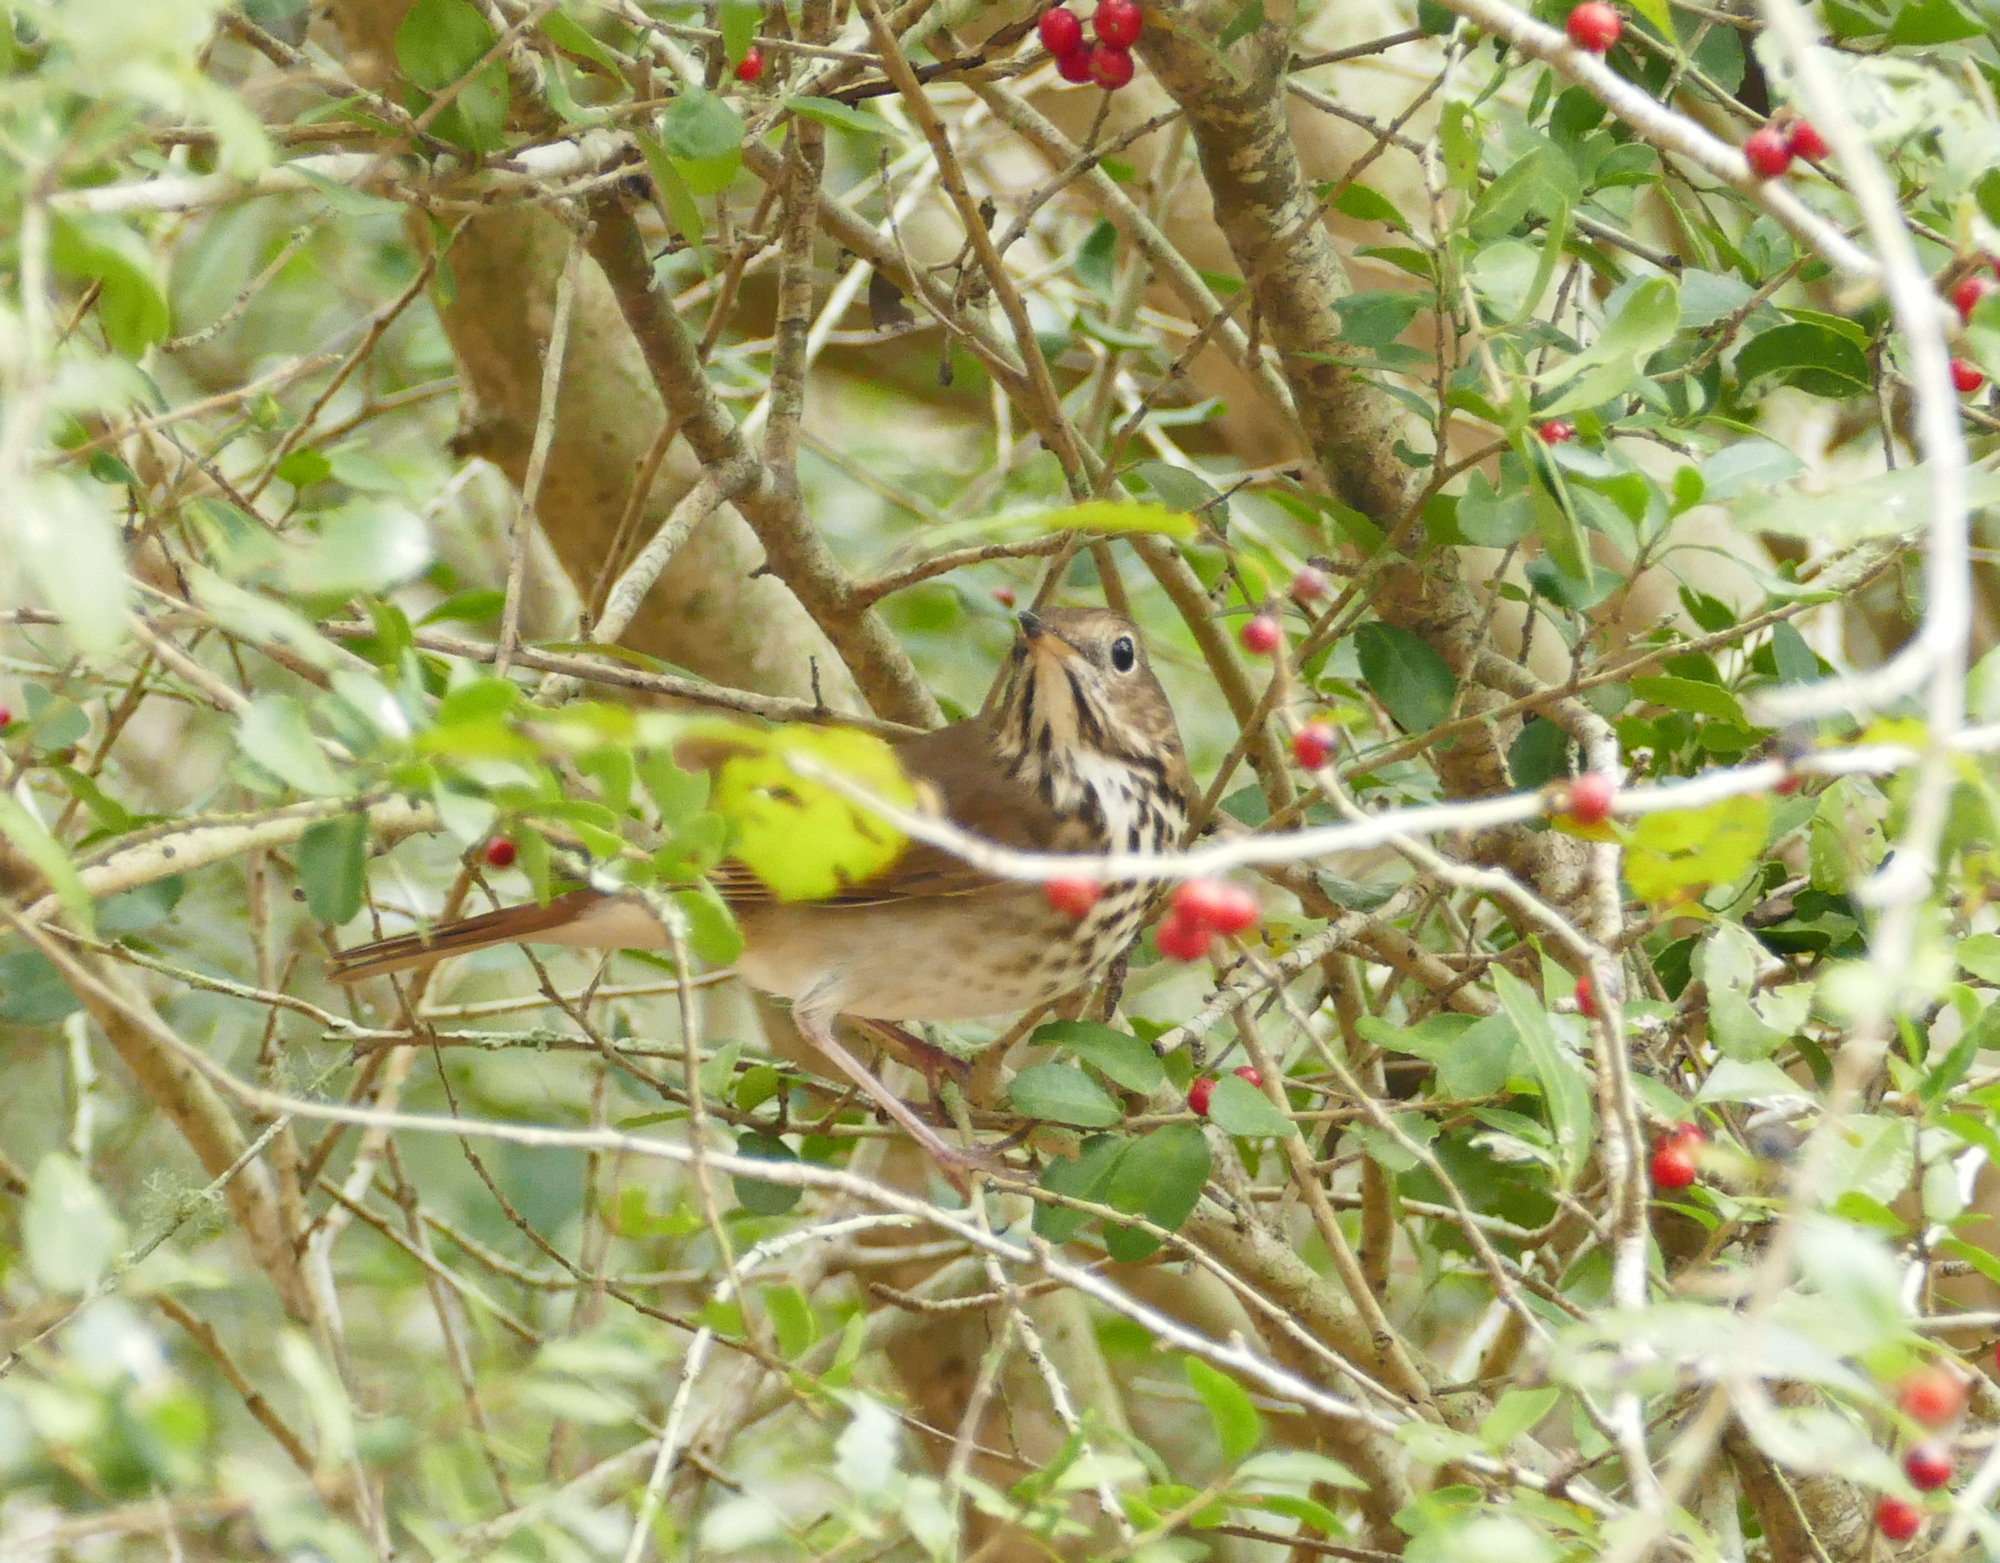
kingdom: Animalia
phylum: Chordata
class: Aves
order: Passeriformes
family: Turdidae
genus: Catharus
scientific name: Catharus guttatus
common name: Hermit thrush
